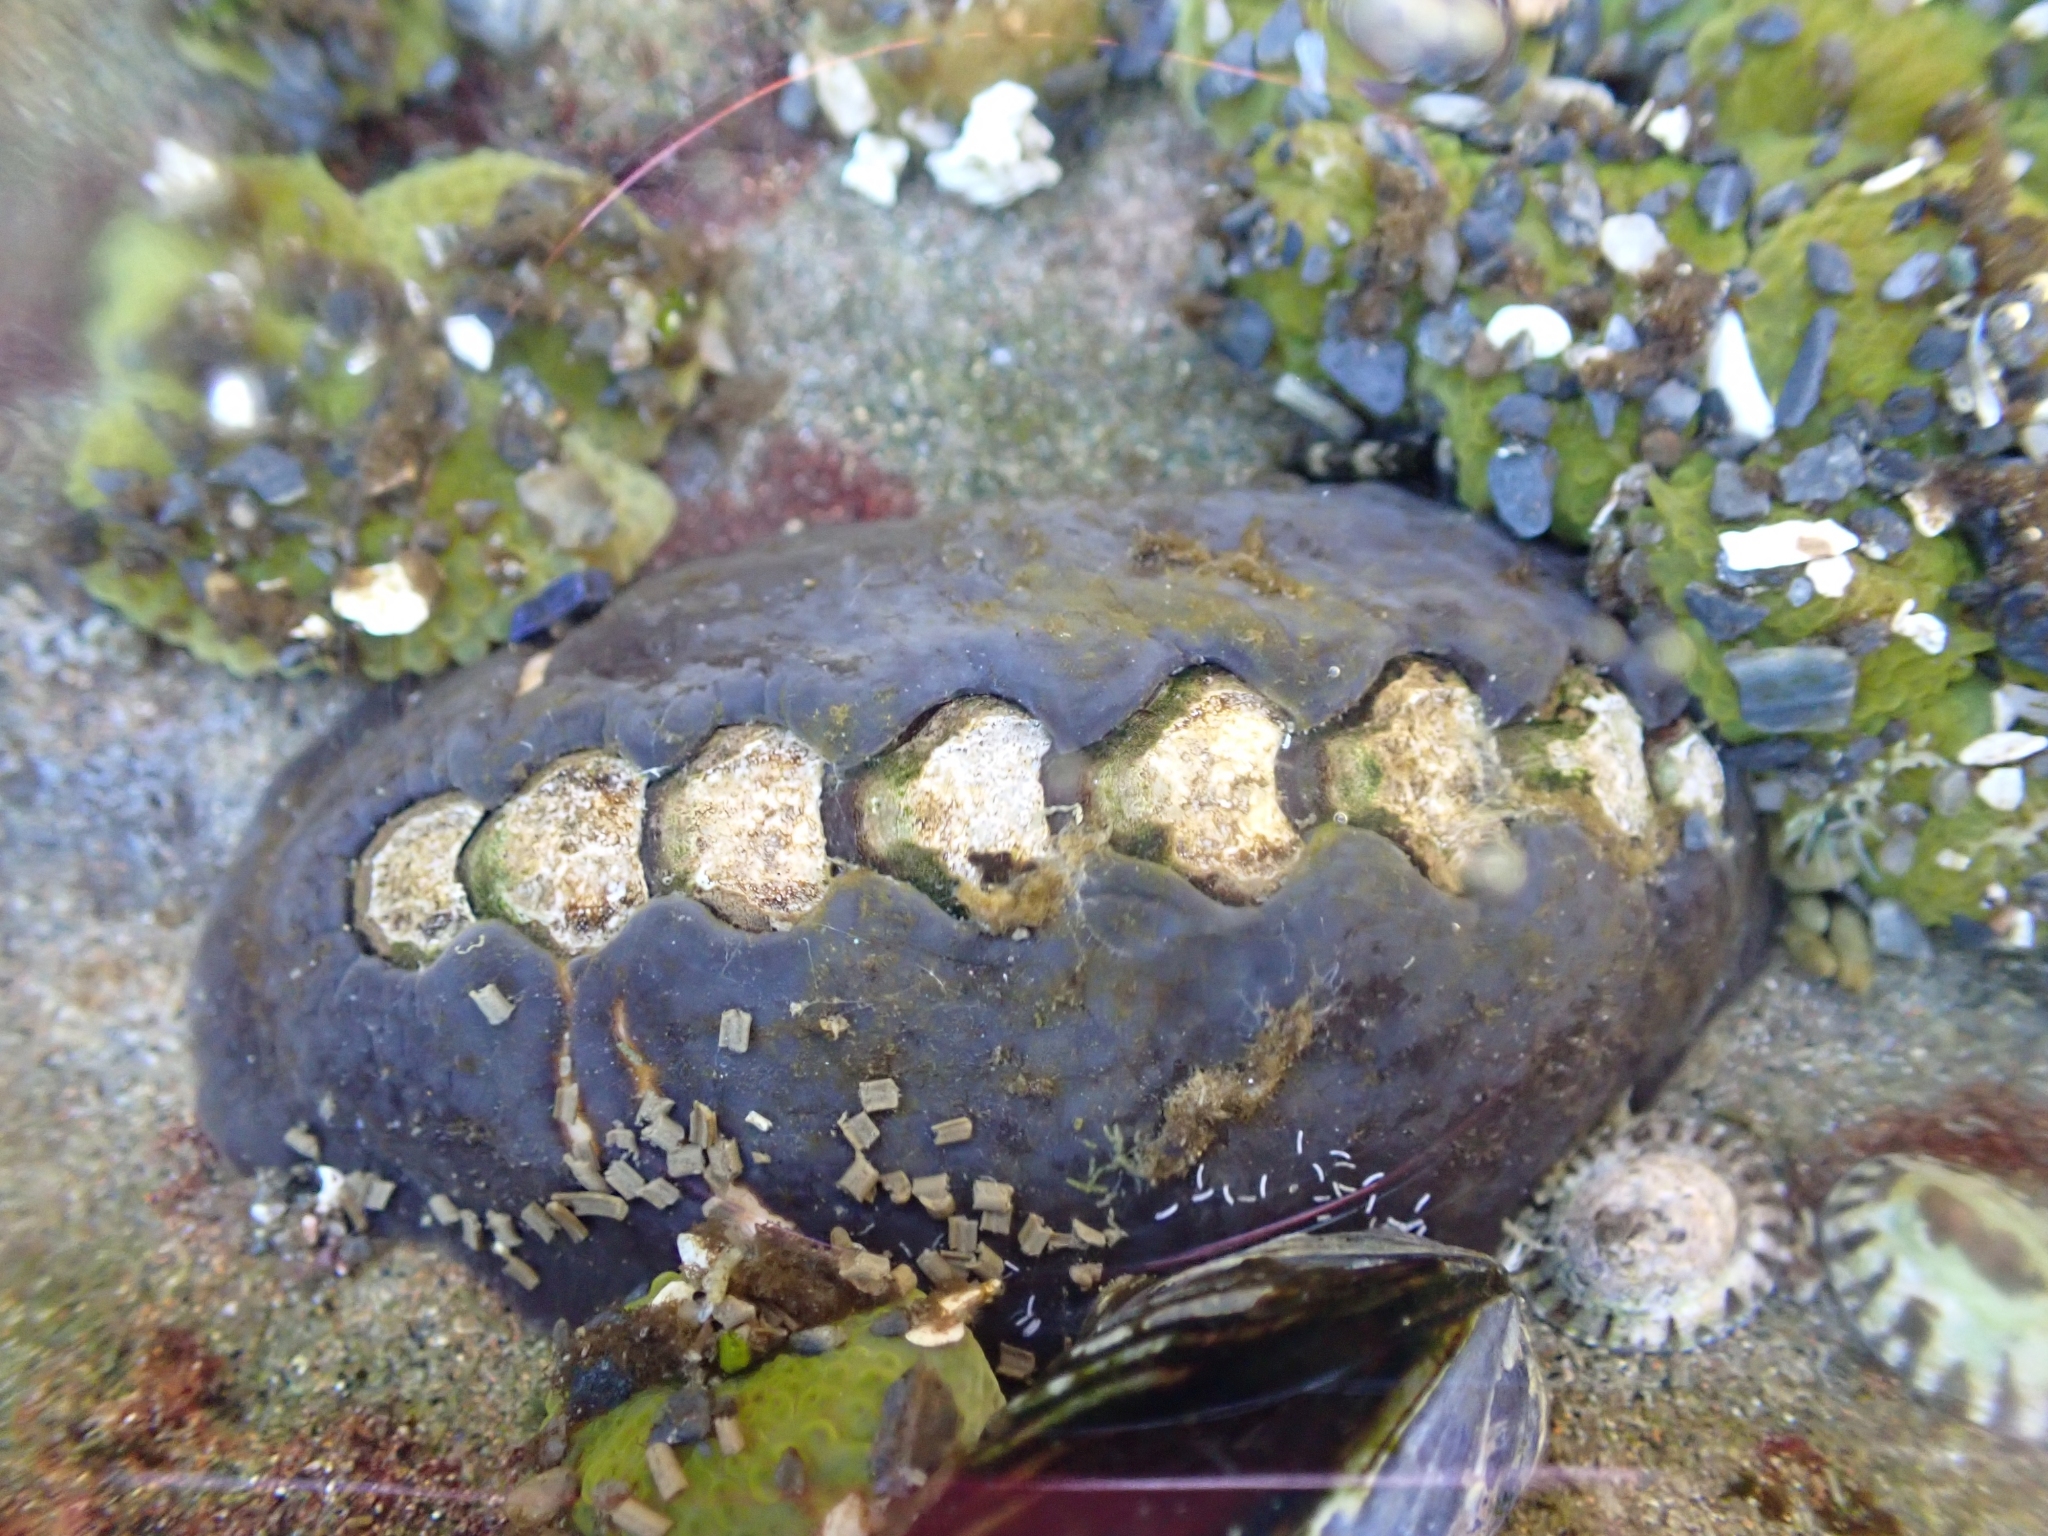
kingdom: Animalia
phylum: Mollusca
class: Polyplacophora
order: Chitonida
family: Mopaliidae
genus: Katharina
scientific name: Katharina tunicata
